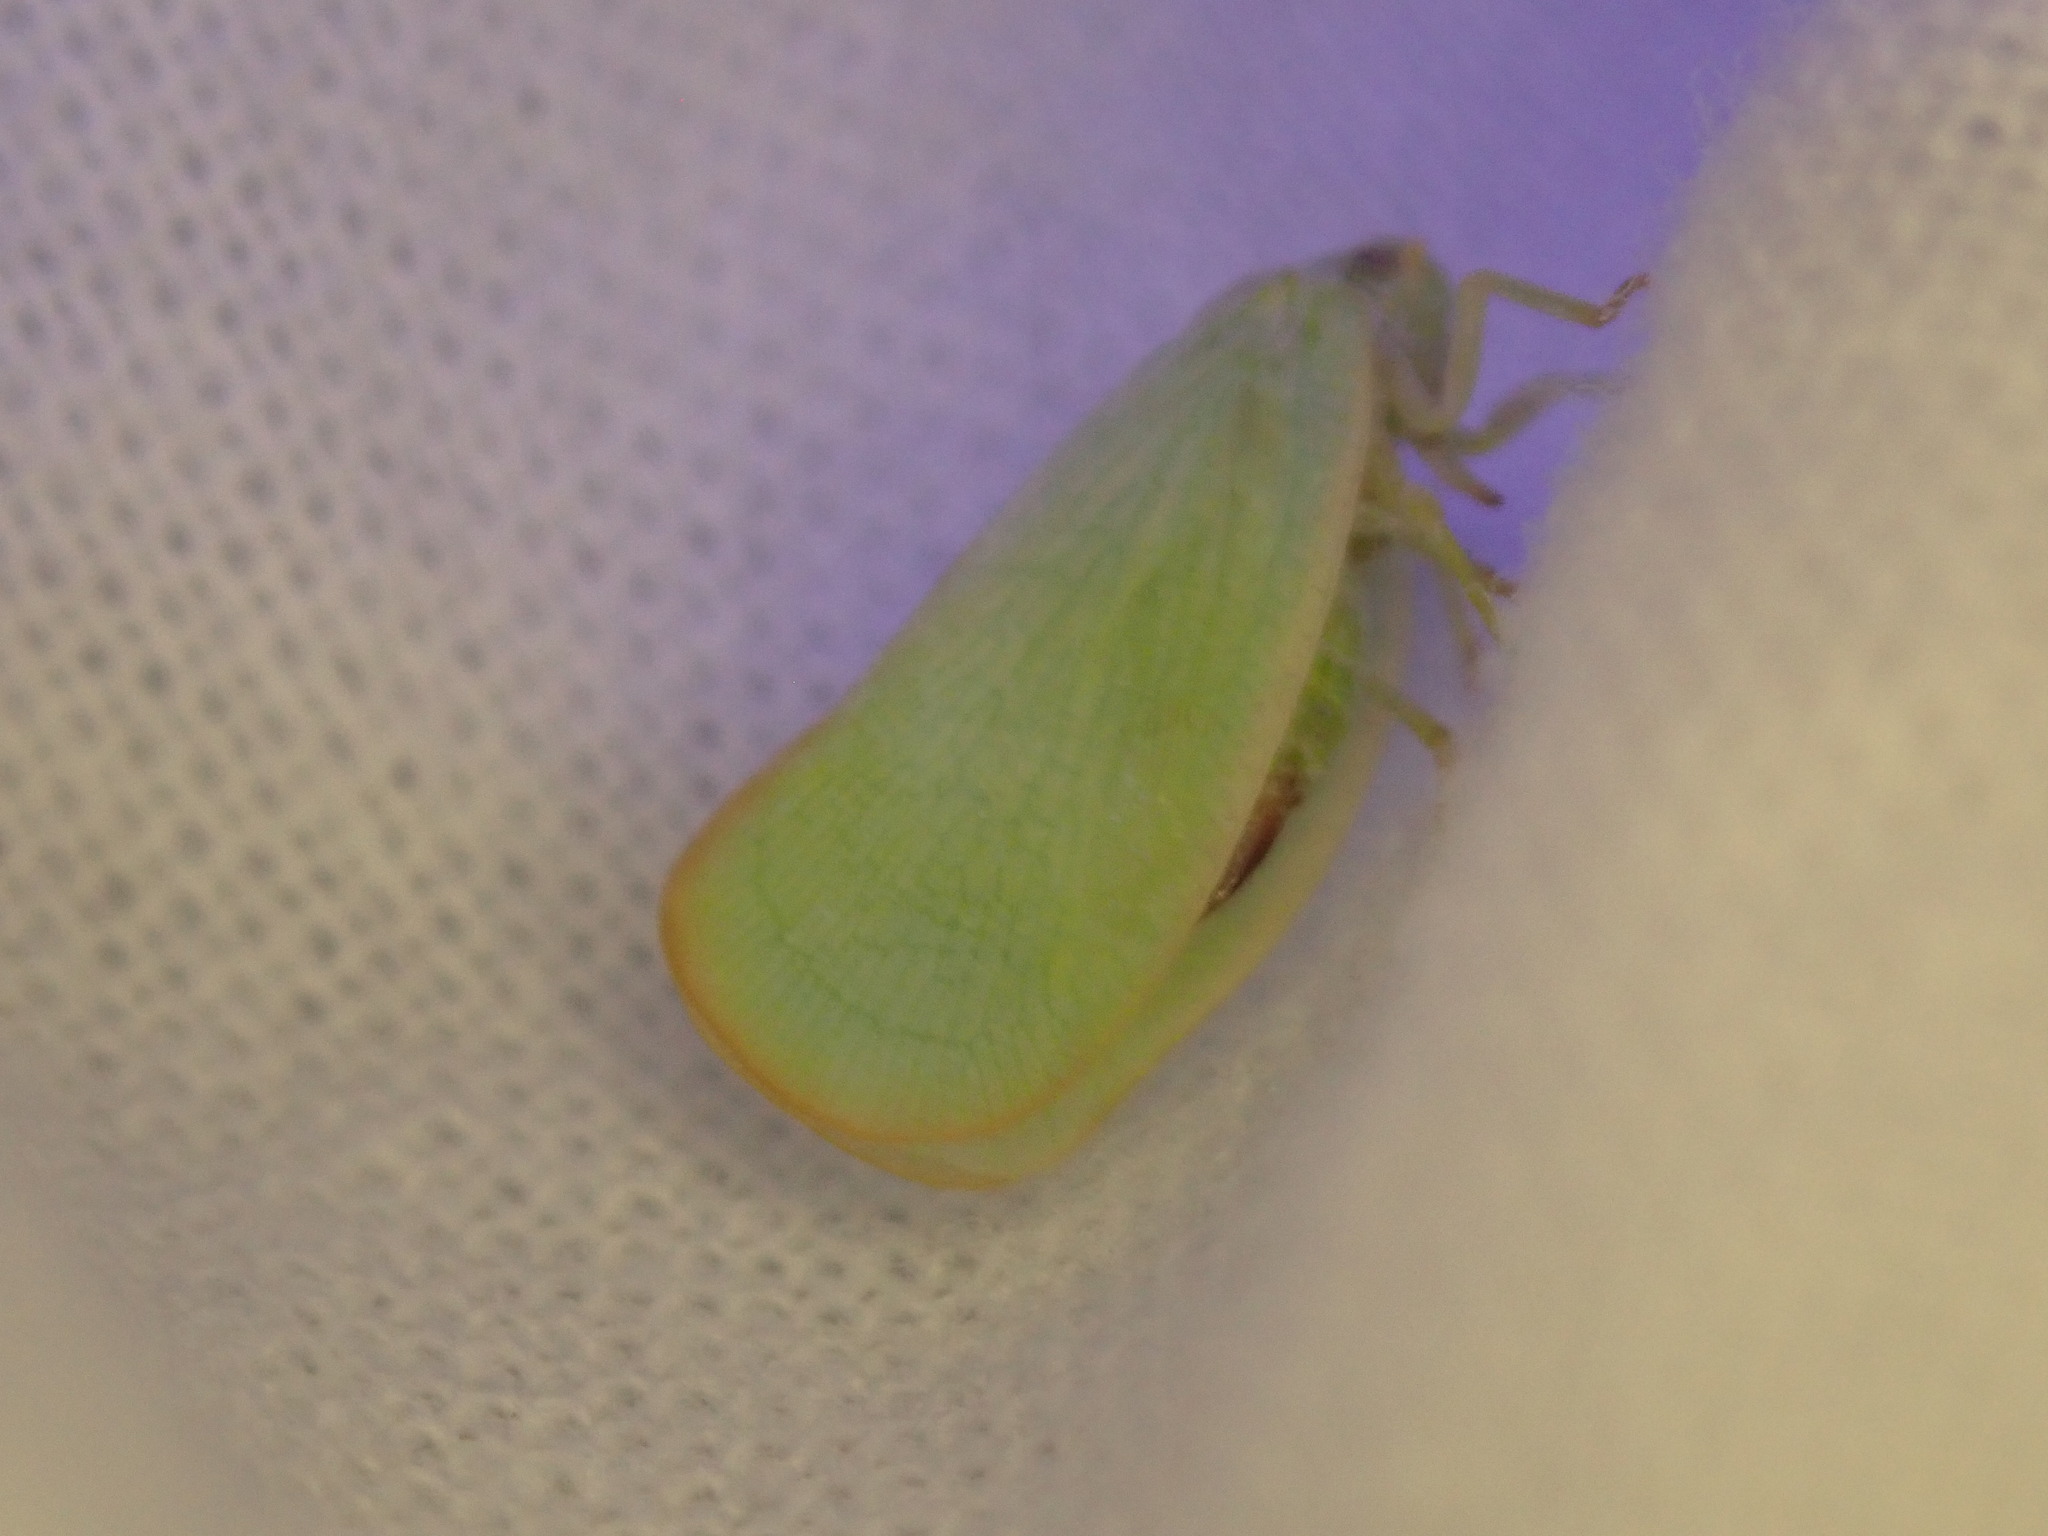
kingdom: Animalia
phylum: Arthropoda
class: Insecta
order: Hemiptera
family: Flatidae
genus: Ormenoides
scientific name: Ormenoides venusta
